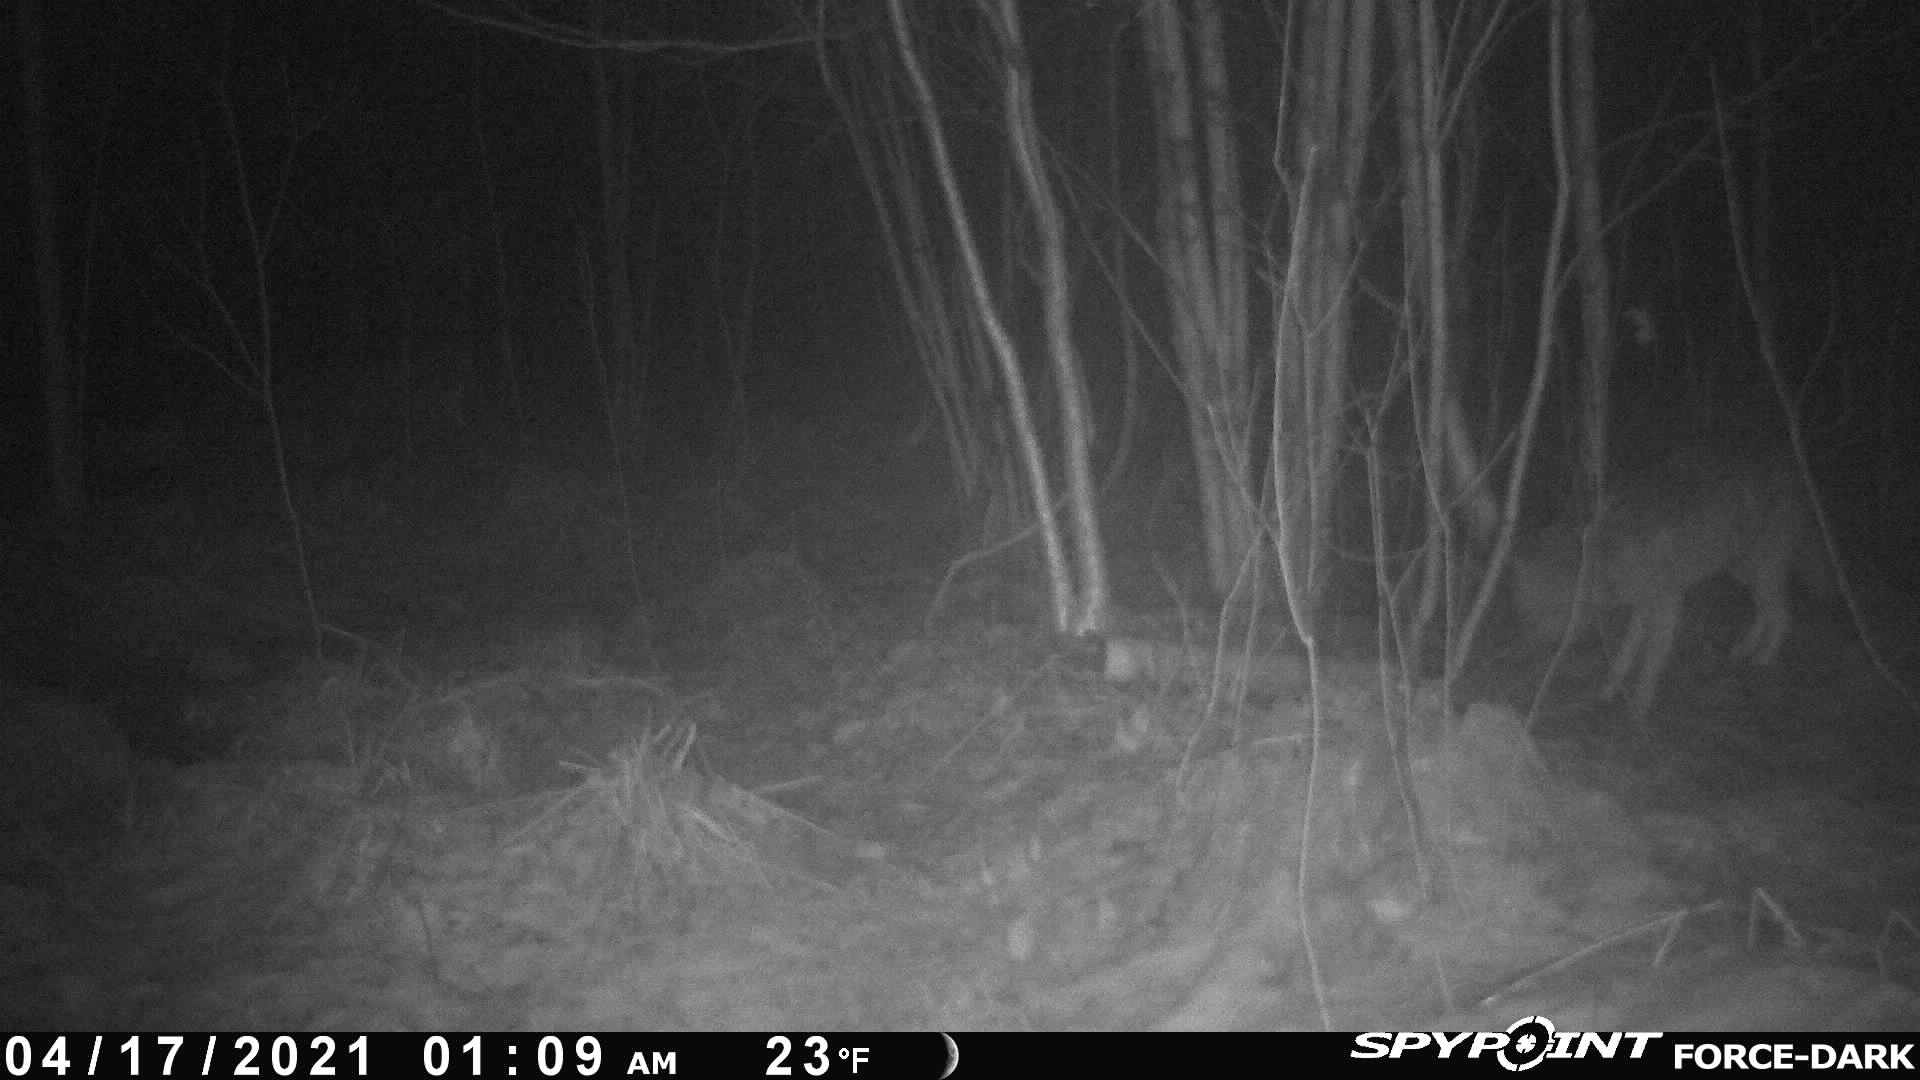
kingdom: Animalia
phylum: Chordata
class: Mammalia
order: Carnivora
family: Canidae
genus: Canis
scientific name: Canis latrans
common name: Coyote
